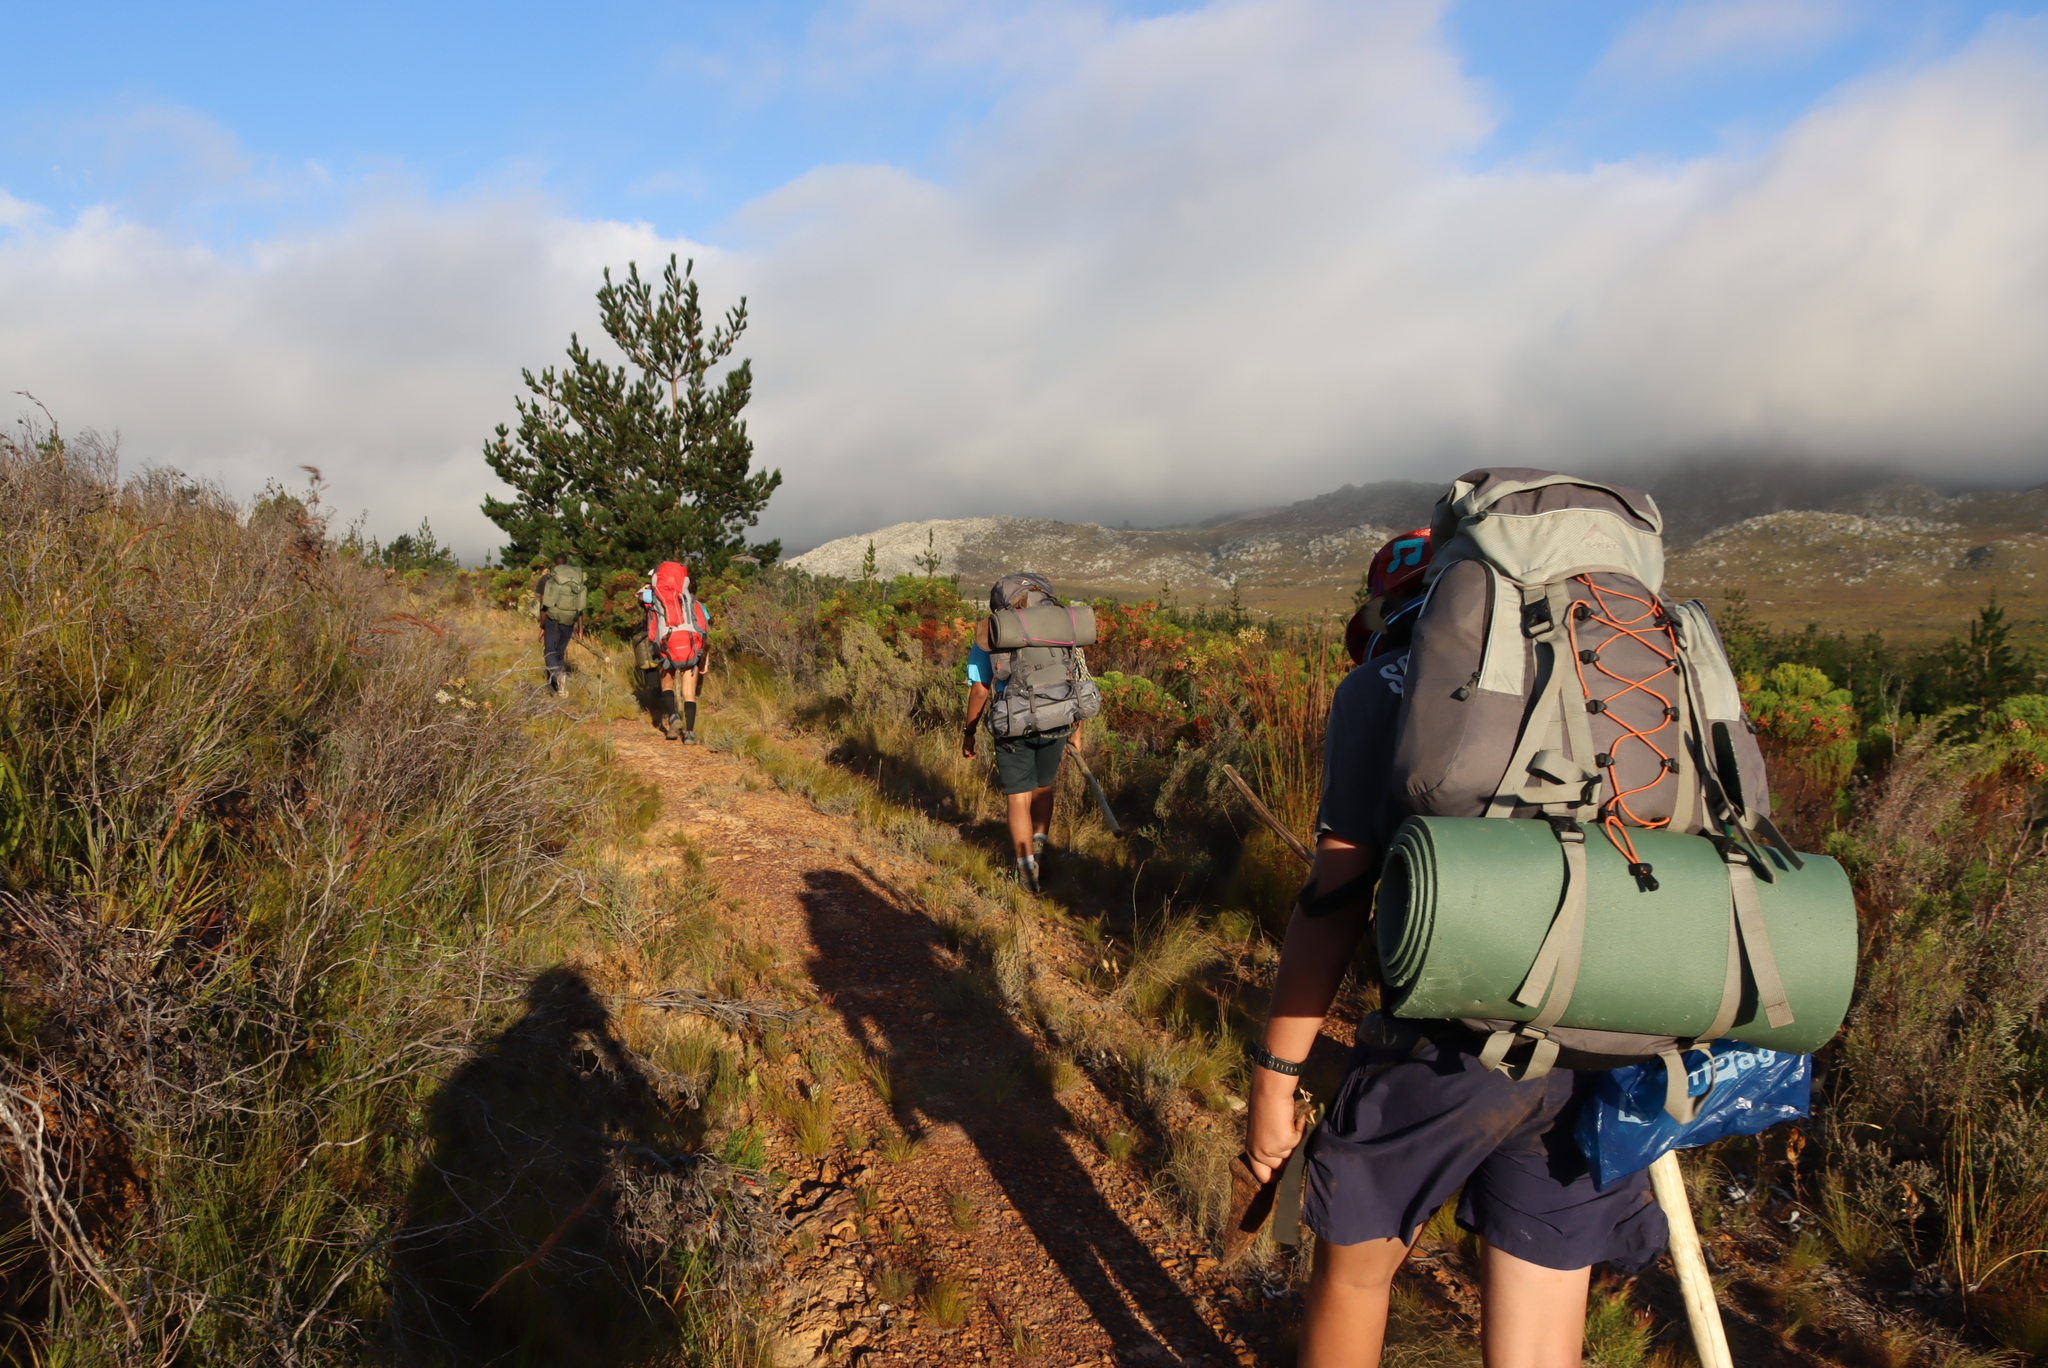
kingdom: Plantae
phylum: Tracheophyta
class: Pinopsida
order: Pinales
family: Pinaceae
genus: Pinus
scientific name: Pinus radiata
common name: Monterey pine
